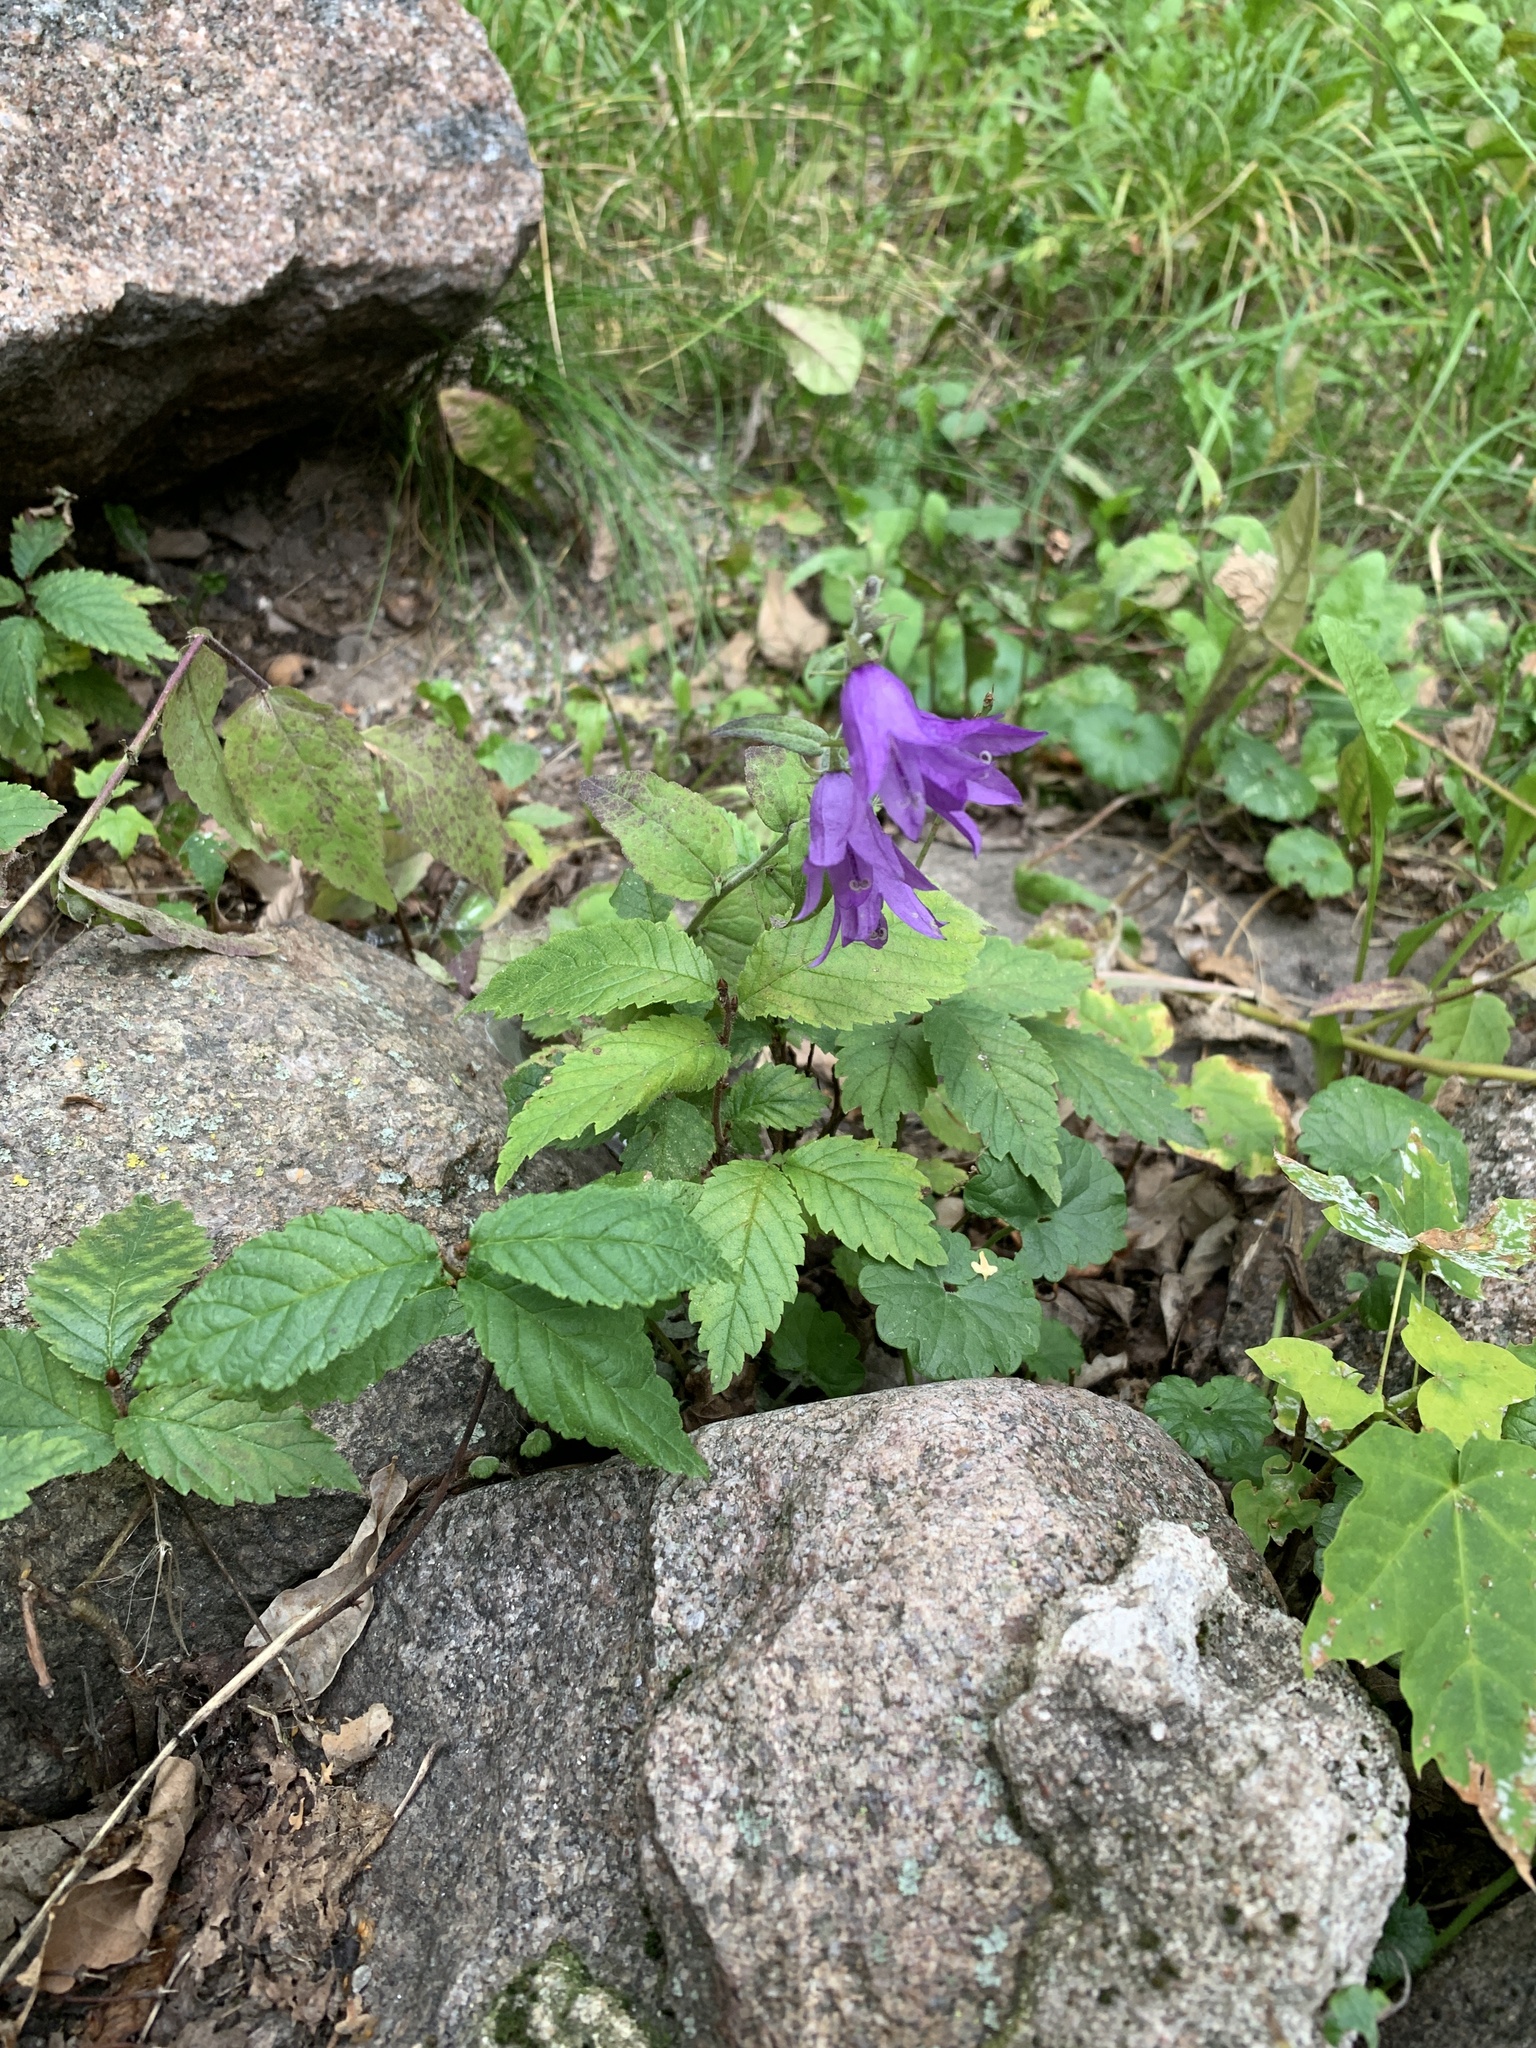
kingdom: Plantae
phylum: Tracheophyta
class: Magnoliopsida
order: Asterales
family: Campanulaceae
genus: Campanula
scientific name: Campanula rapunculoides
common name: Creeping bellflower
